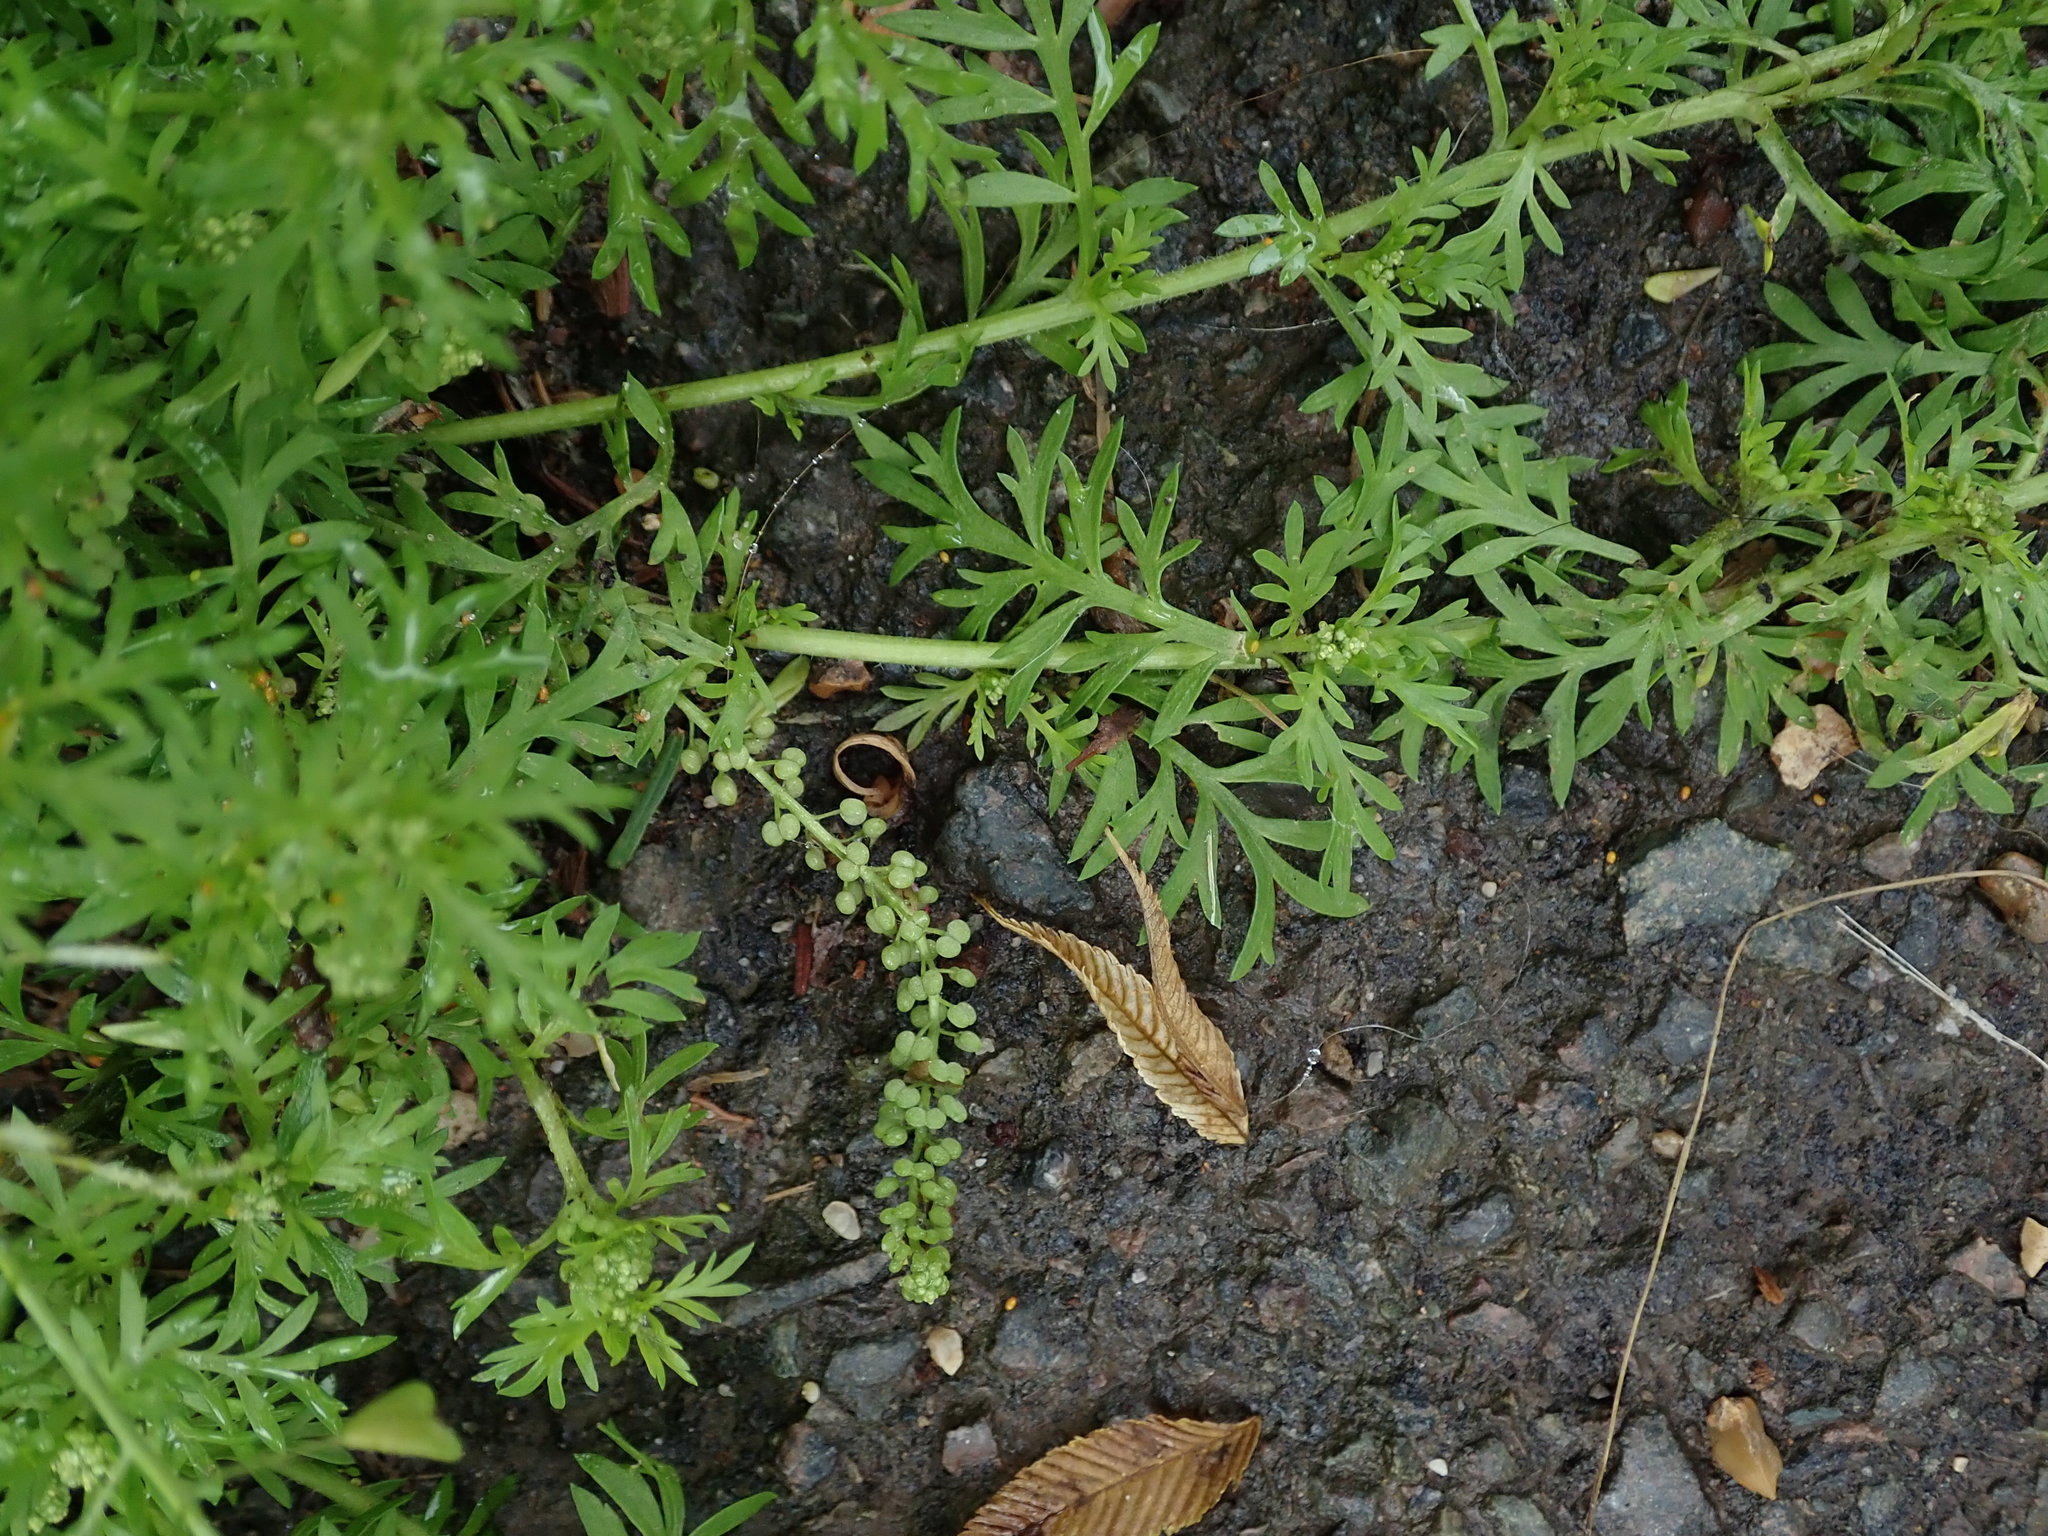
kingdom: Plantae
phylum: Tracheophyta
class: Magnoliopsida
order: Brassicales
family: Brassicaceae
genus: Lepidium
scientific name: Lepidium didymum
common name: Lesser swinecress
